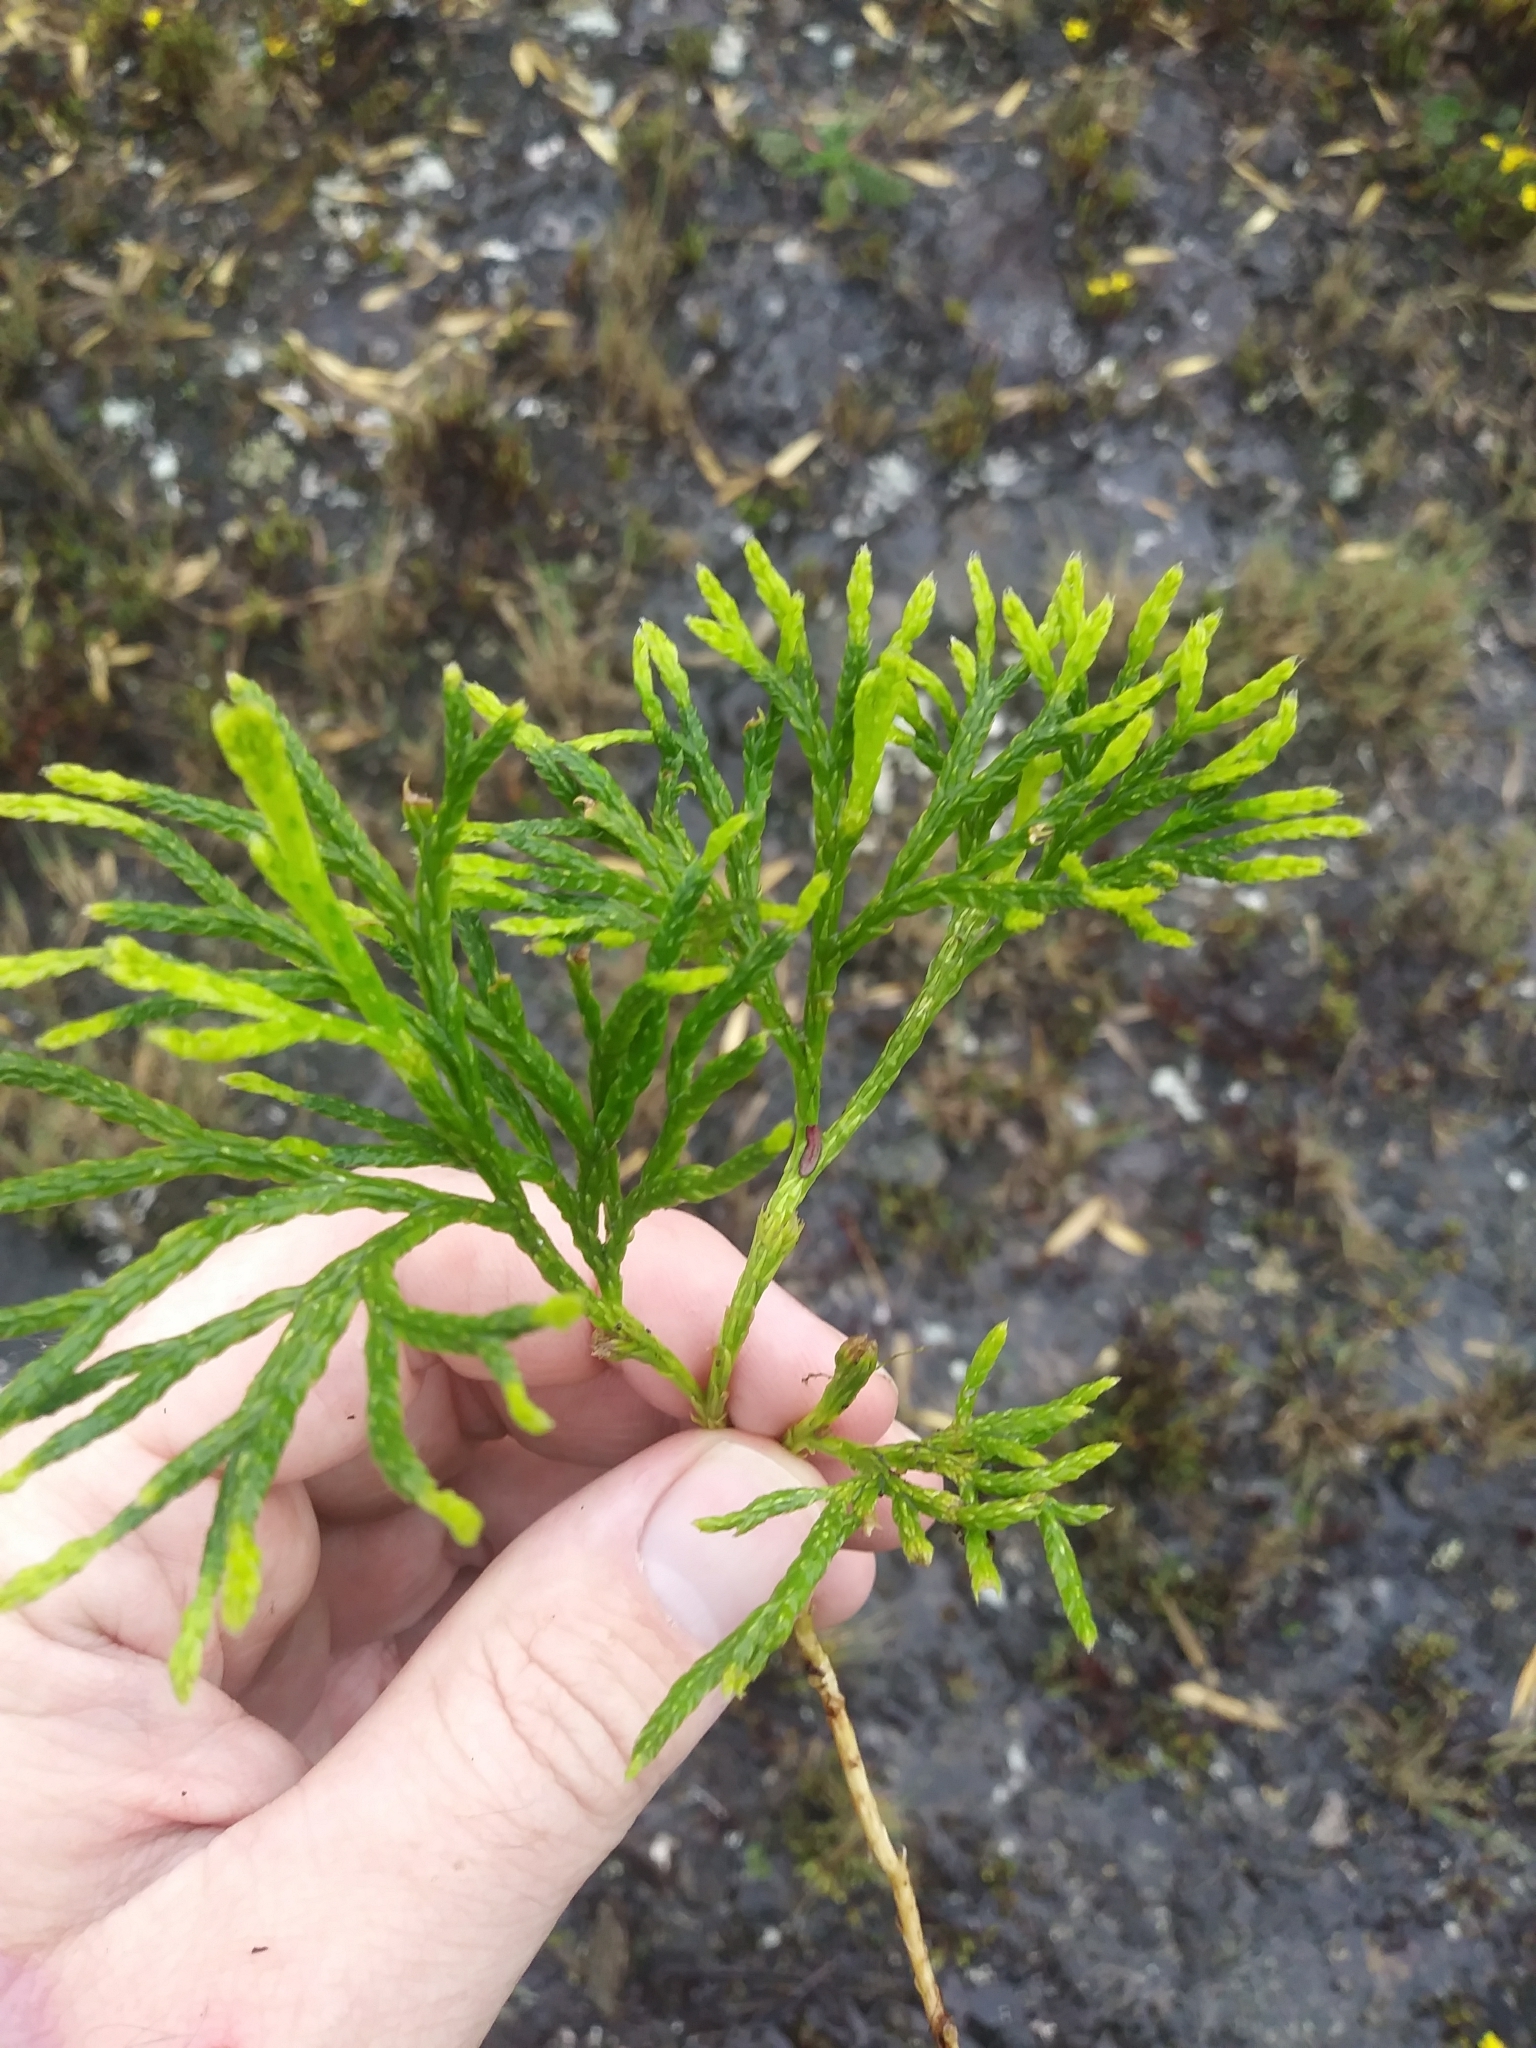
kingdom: Plantae
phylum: Tracheophyta
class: Lycopodiopsida
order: Lycopodiales
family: Lycopodiaceae
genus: Diphasiastrum
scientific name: Diphasiastrum thyoides
